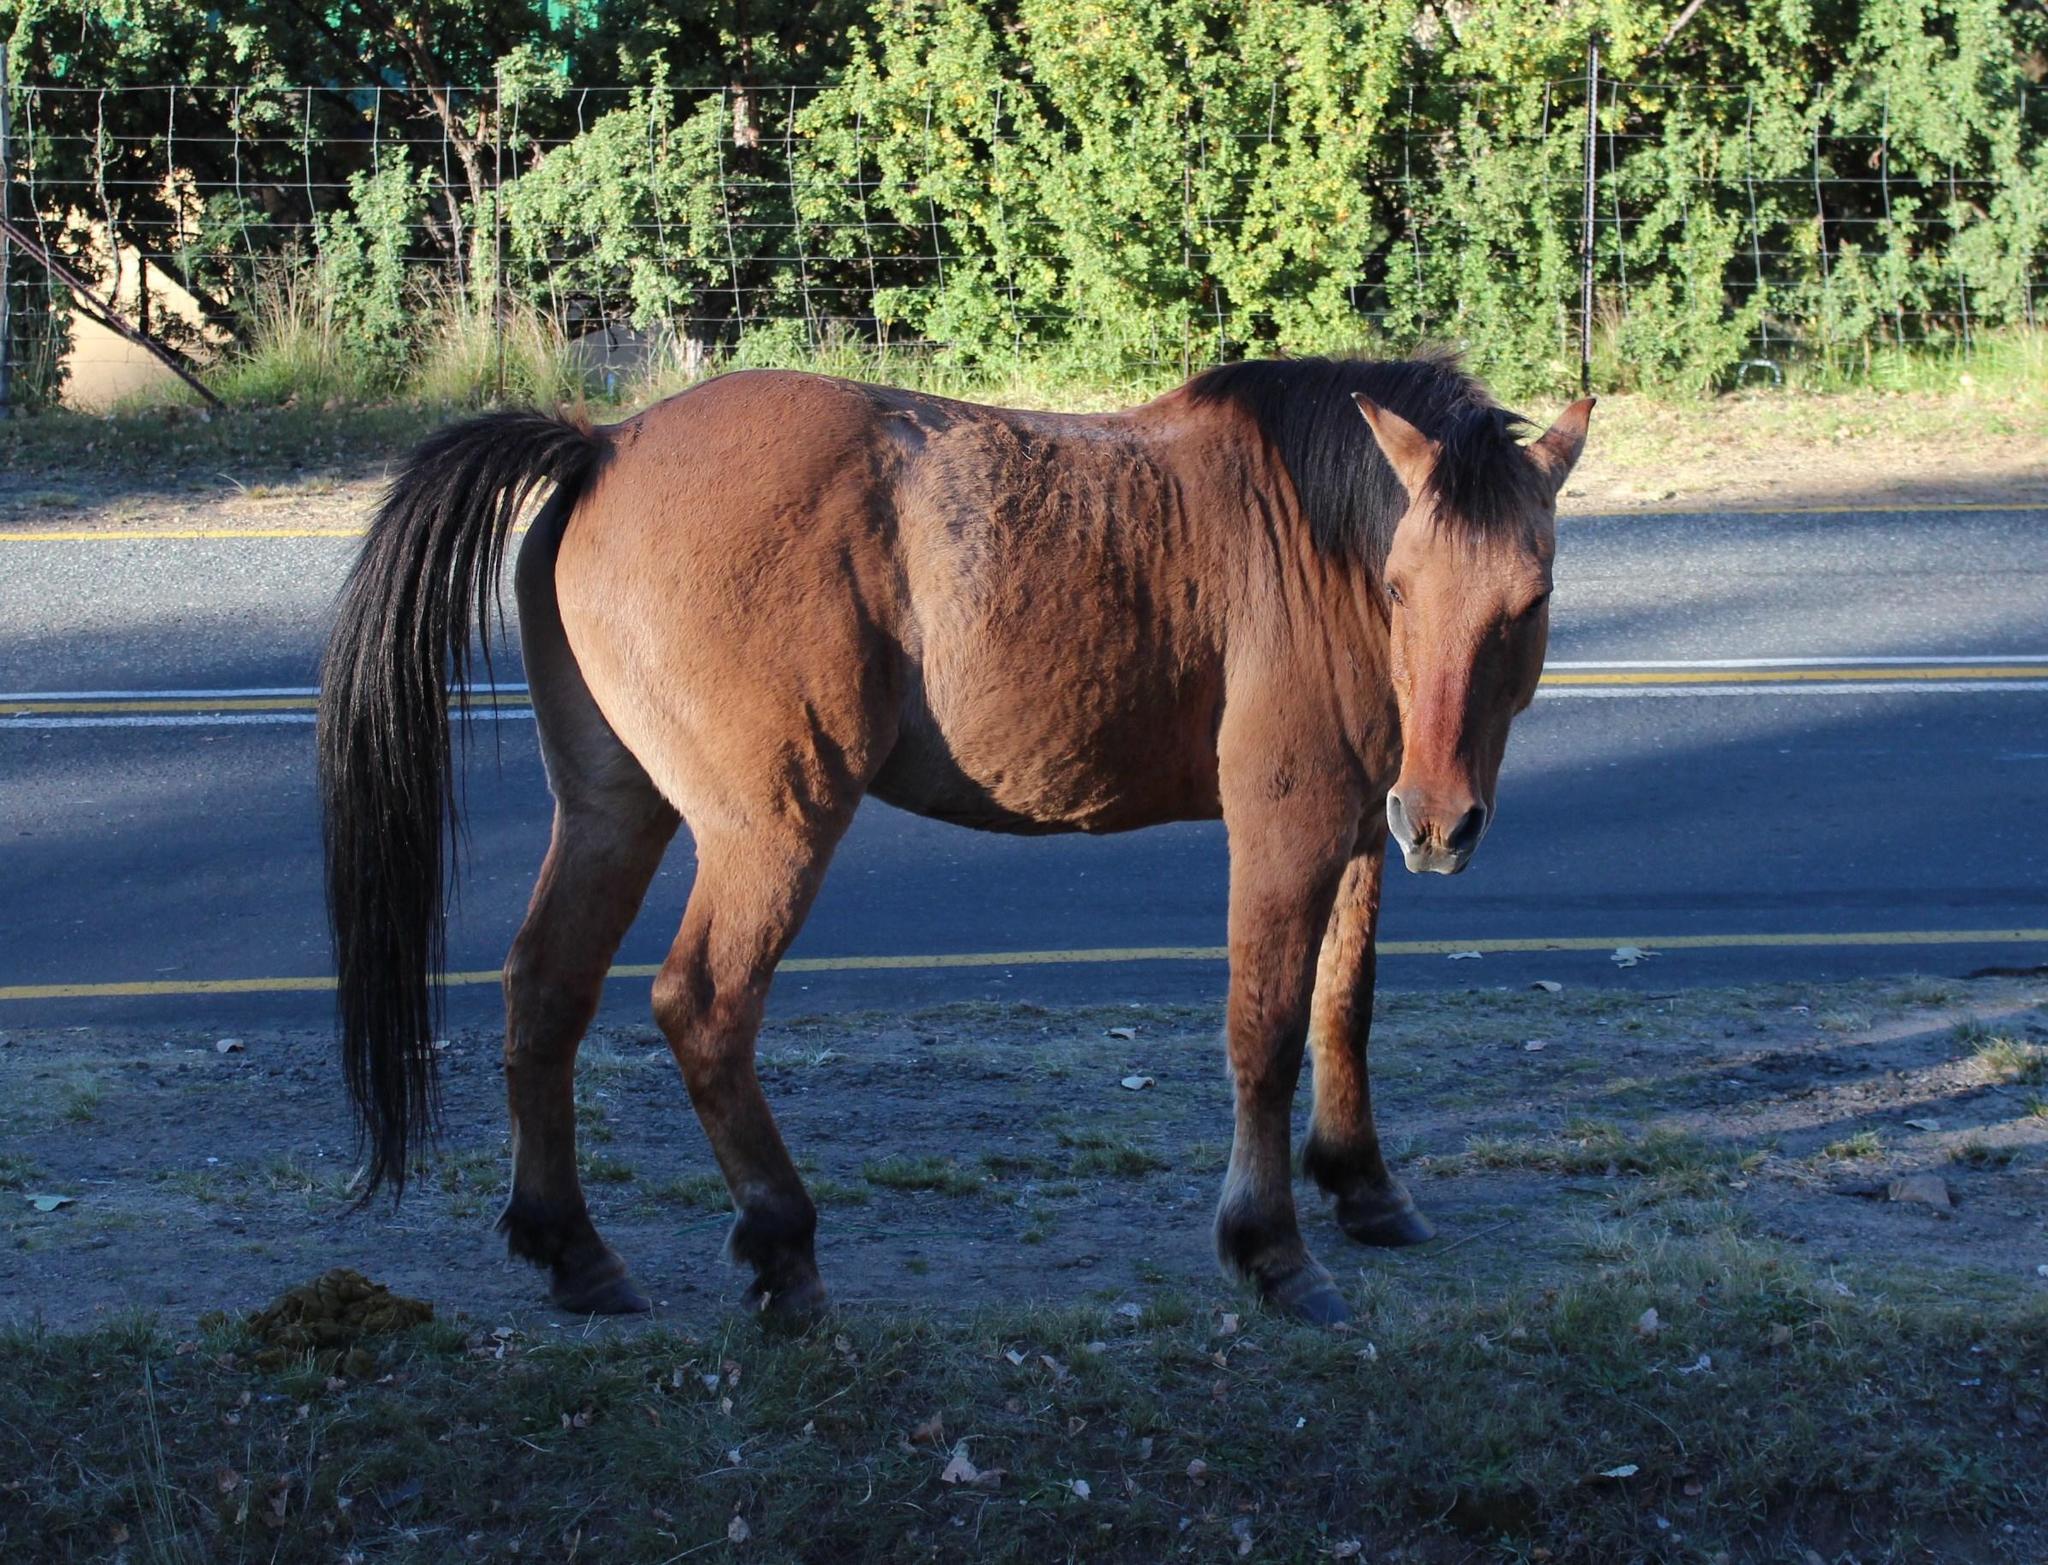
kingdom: Animalia
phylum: Chordata
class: Mammalia
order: Perissodactyla
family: Equidae
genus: Equus
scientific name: Equus caballus
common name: Horse
